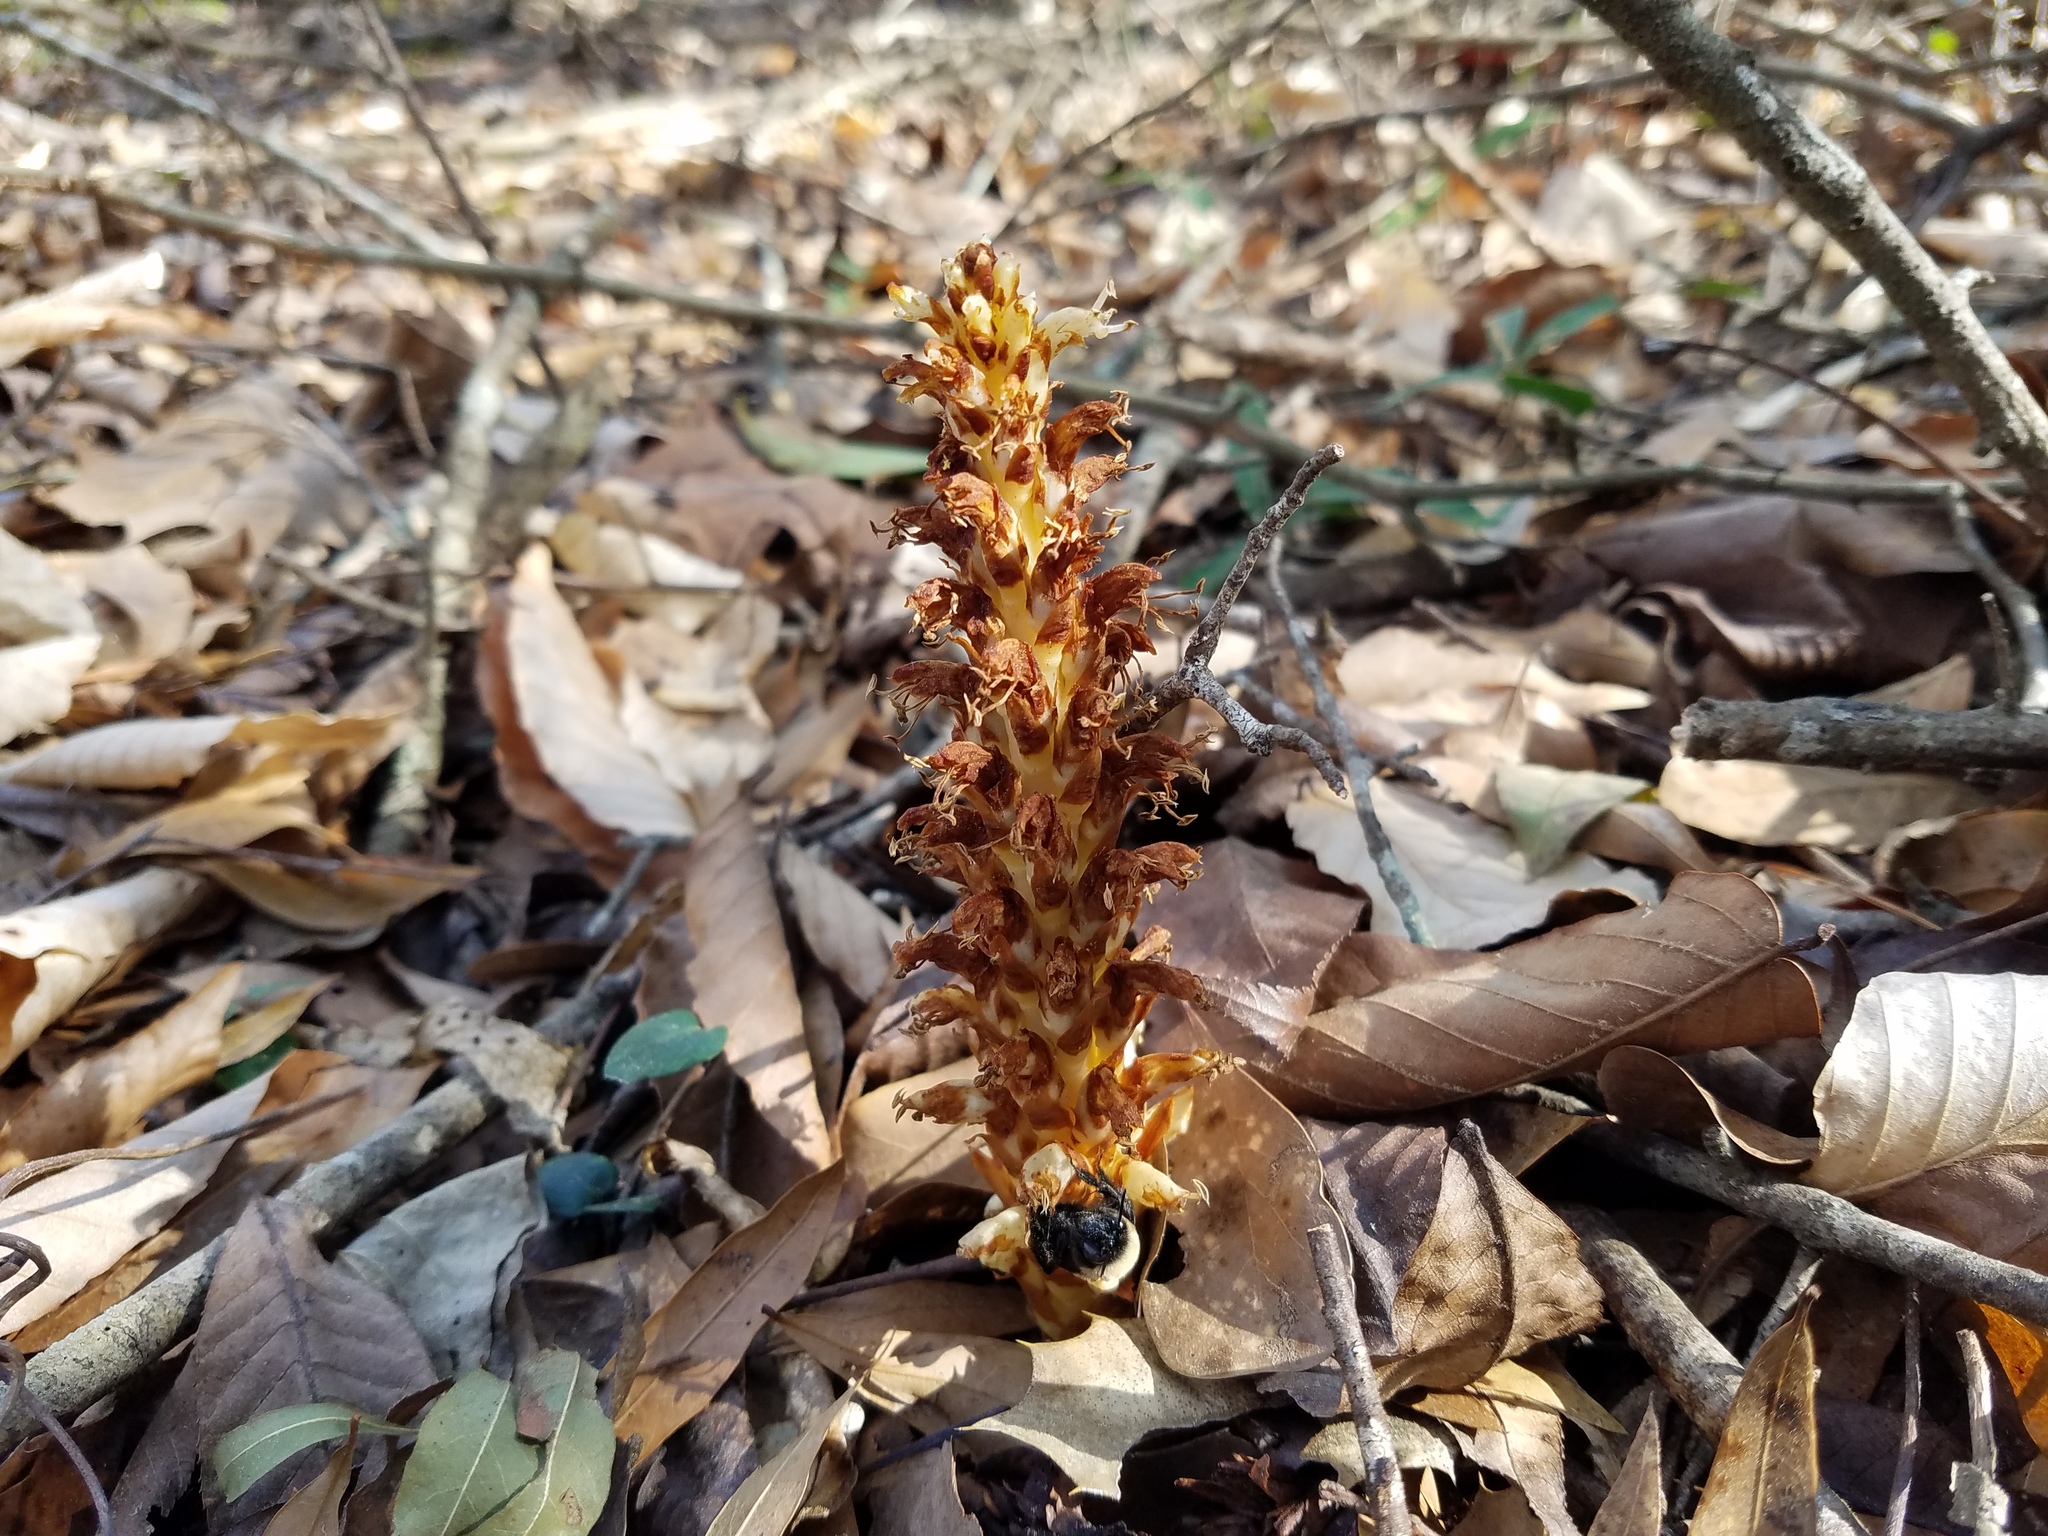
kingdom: Plantae
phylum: Tracheophyta
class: Magnoliopsida
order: Lamiales
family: Orobanchaceae
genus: Conopholis
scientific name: Conopholis americana
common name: American cancer-root
